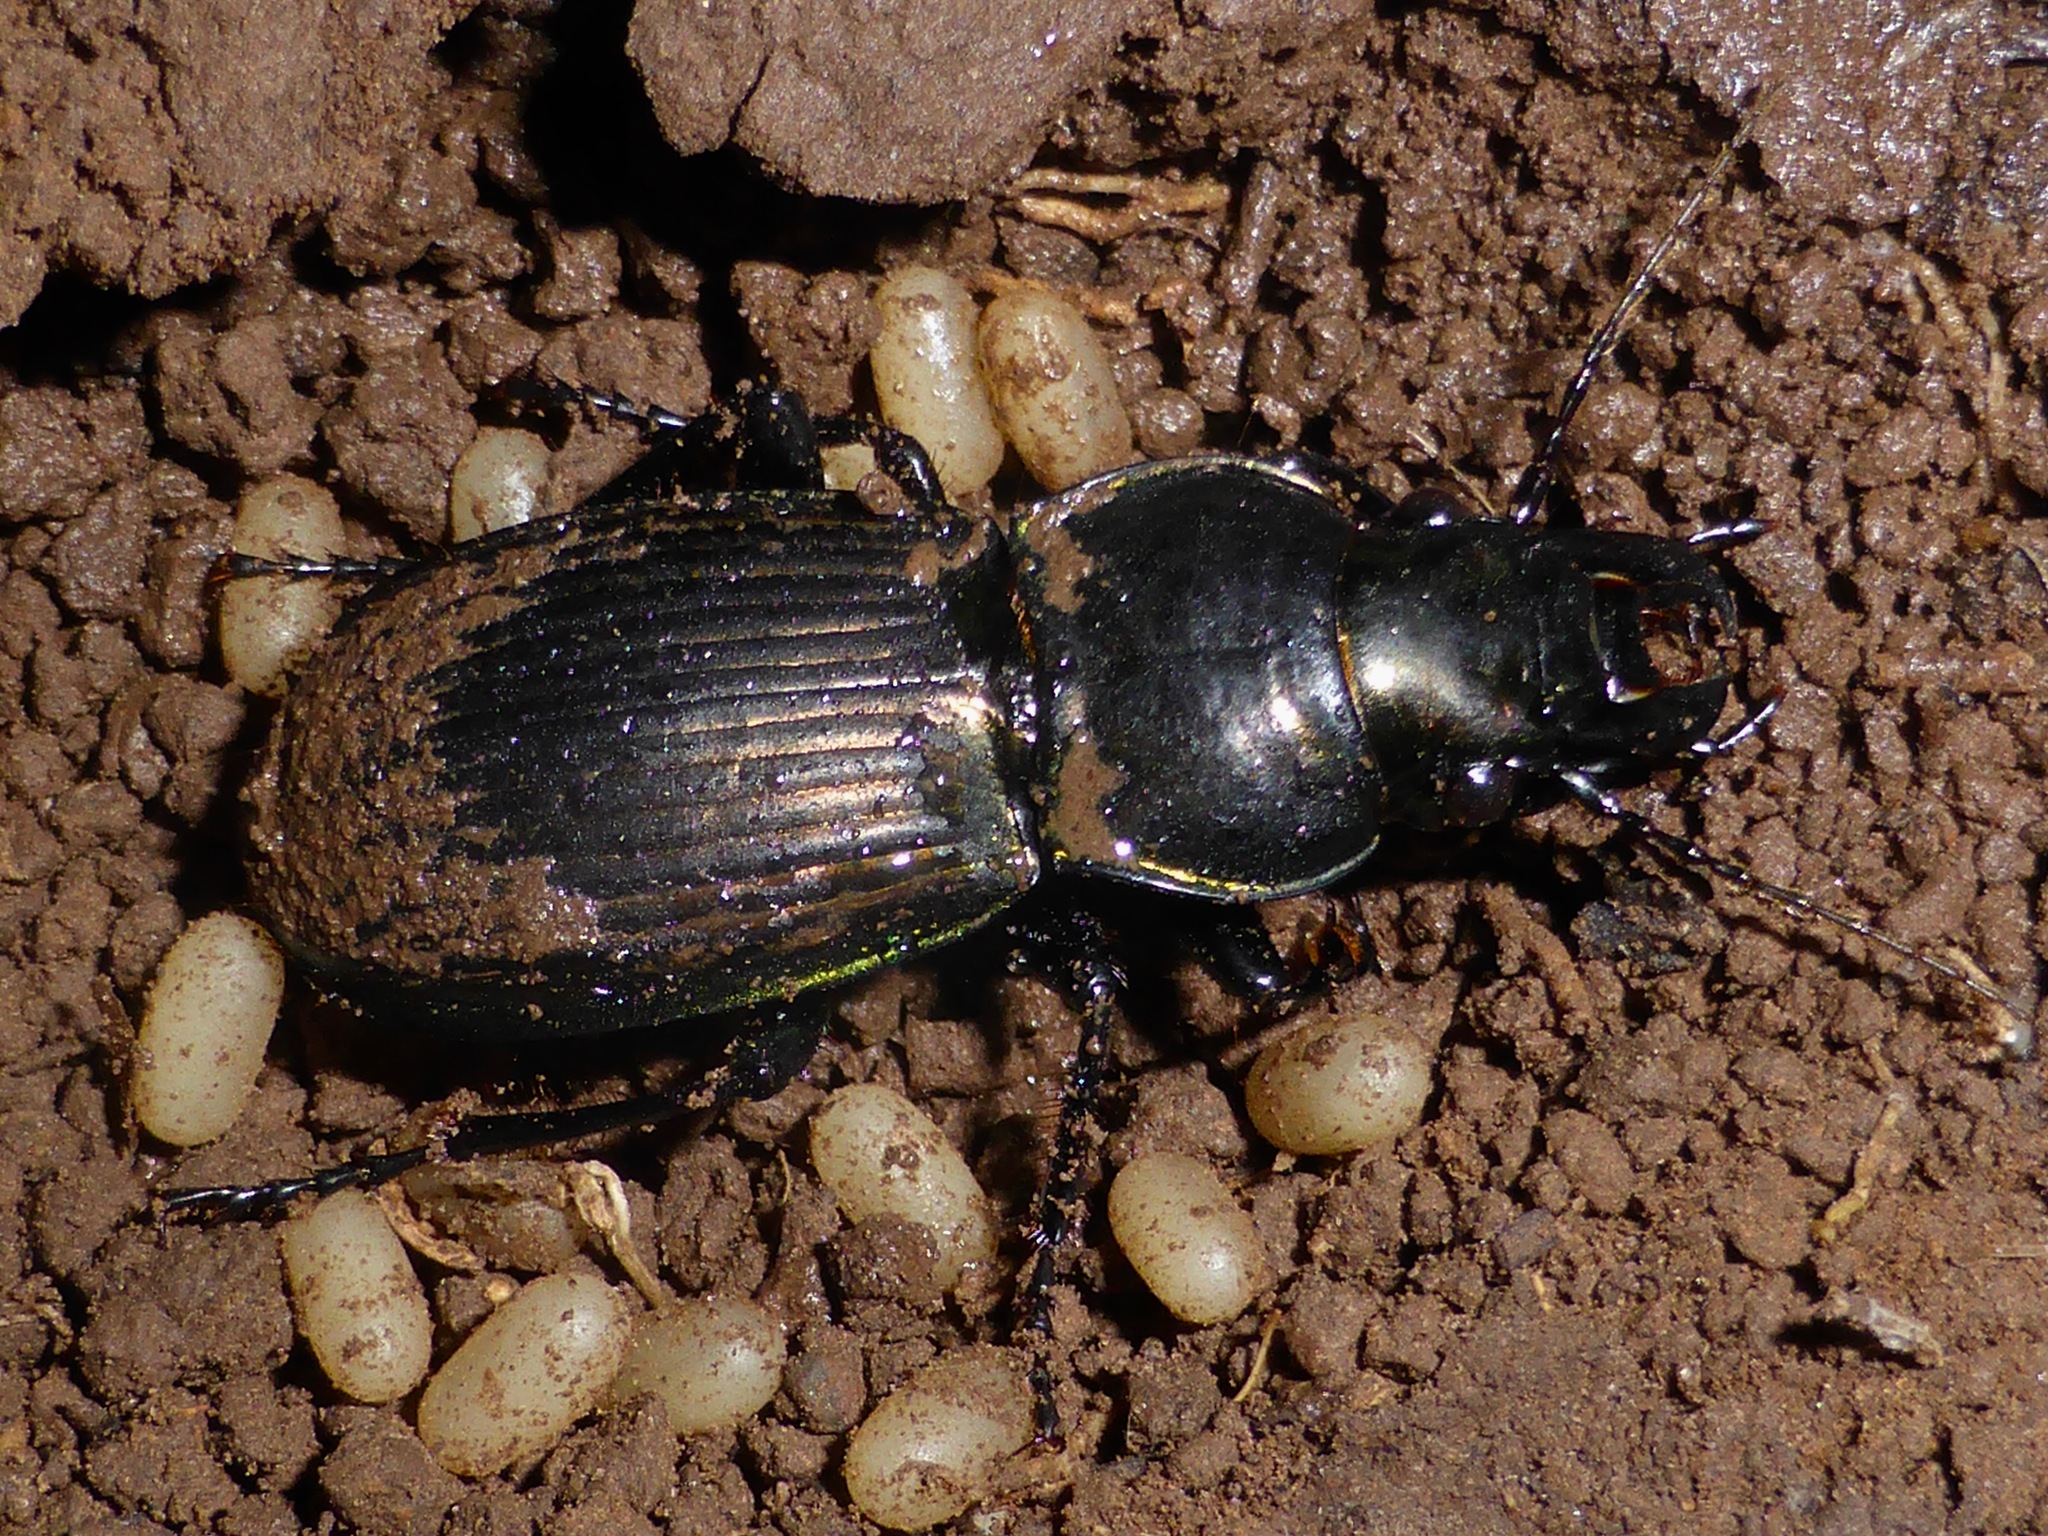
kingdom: Animalia
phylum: Arthropoda
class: Insecta
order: Coleoptera
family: Carabidae
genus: Megadromus
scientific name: Megadromus antarcticus
